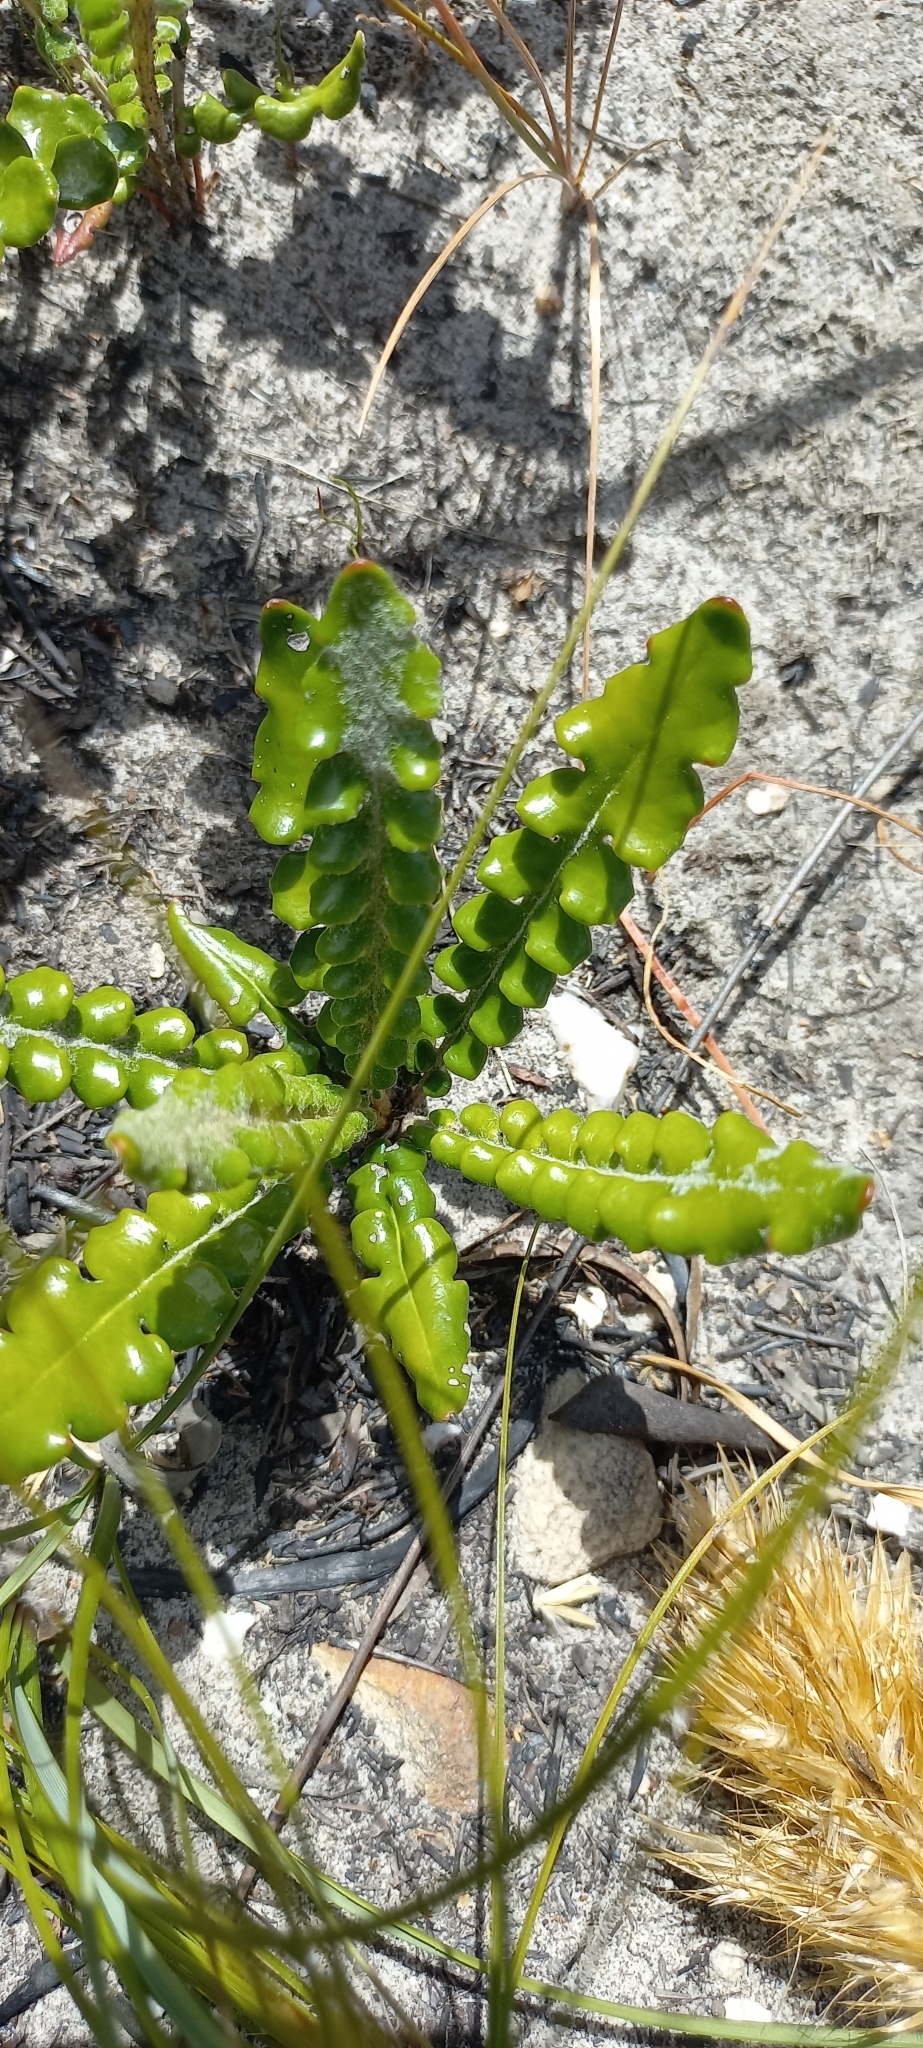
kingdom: Plantae
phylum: Tracheophyta
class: Magnoliopsida
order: Asterales
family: Asteraceae
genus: Gerbera
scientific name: Gerbera linnaei
